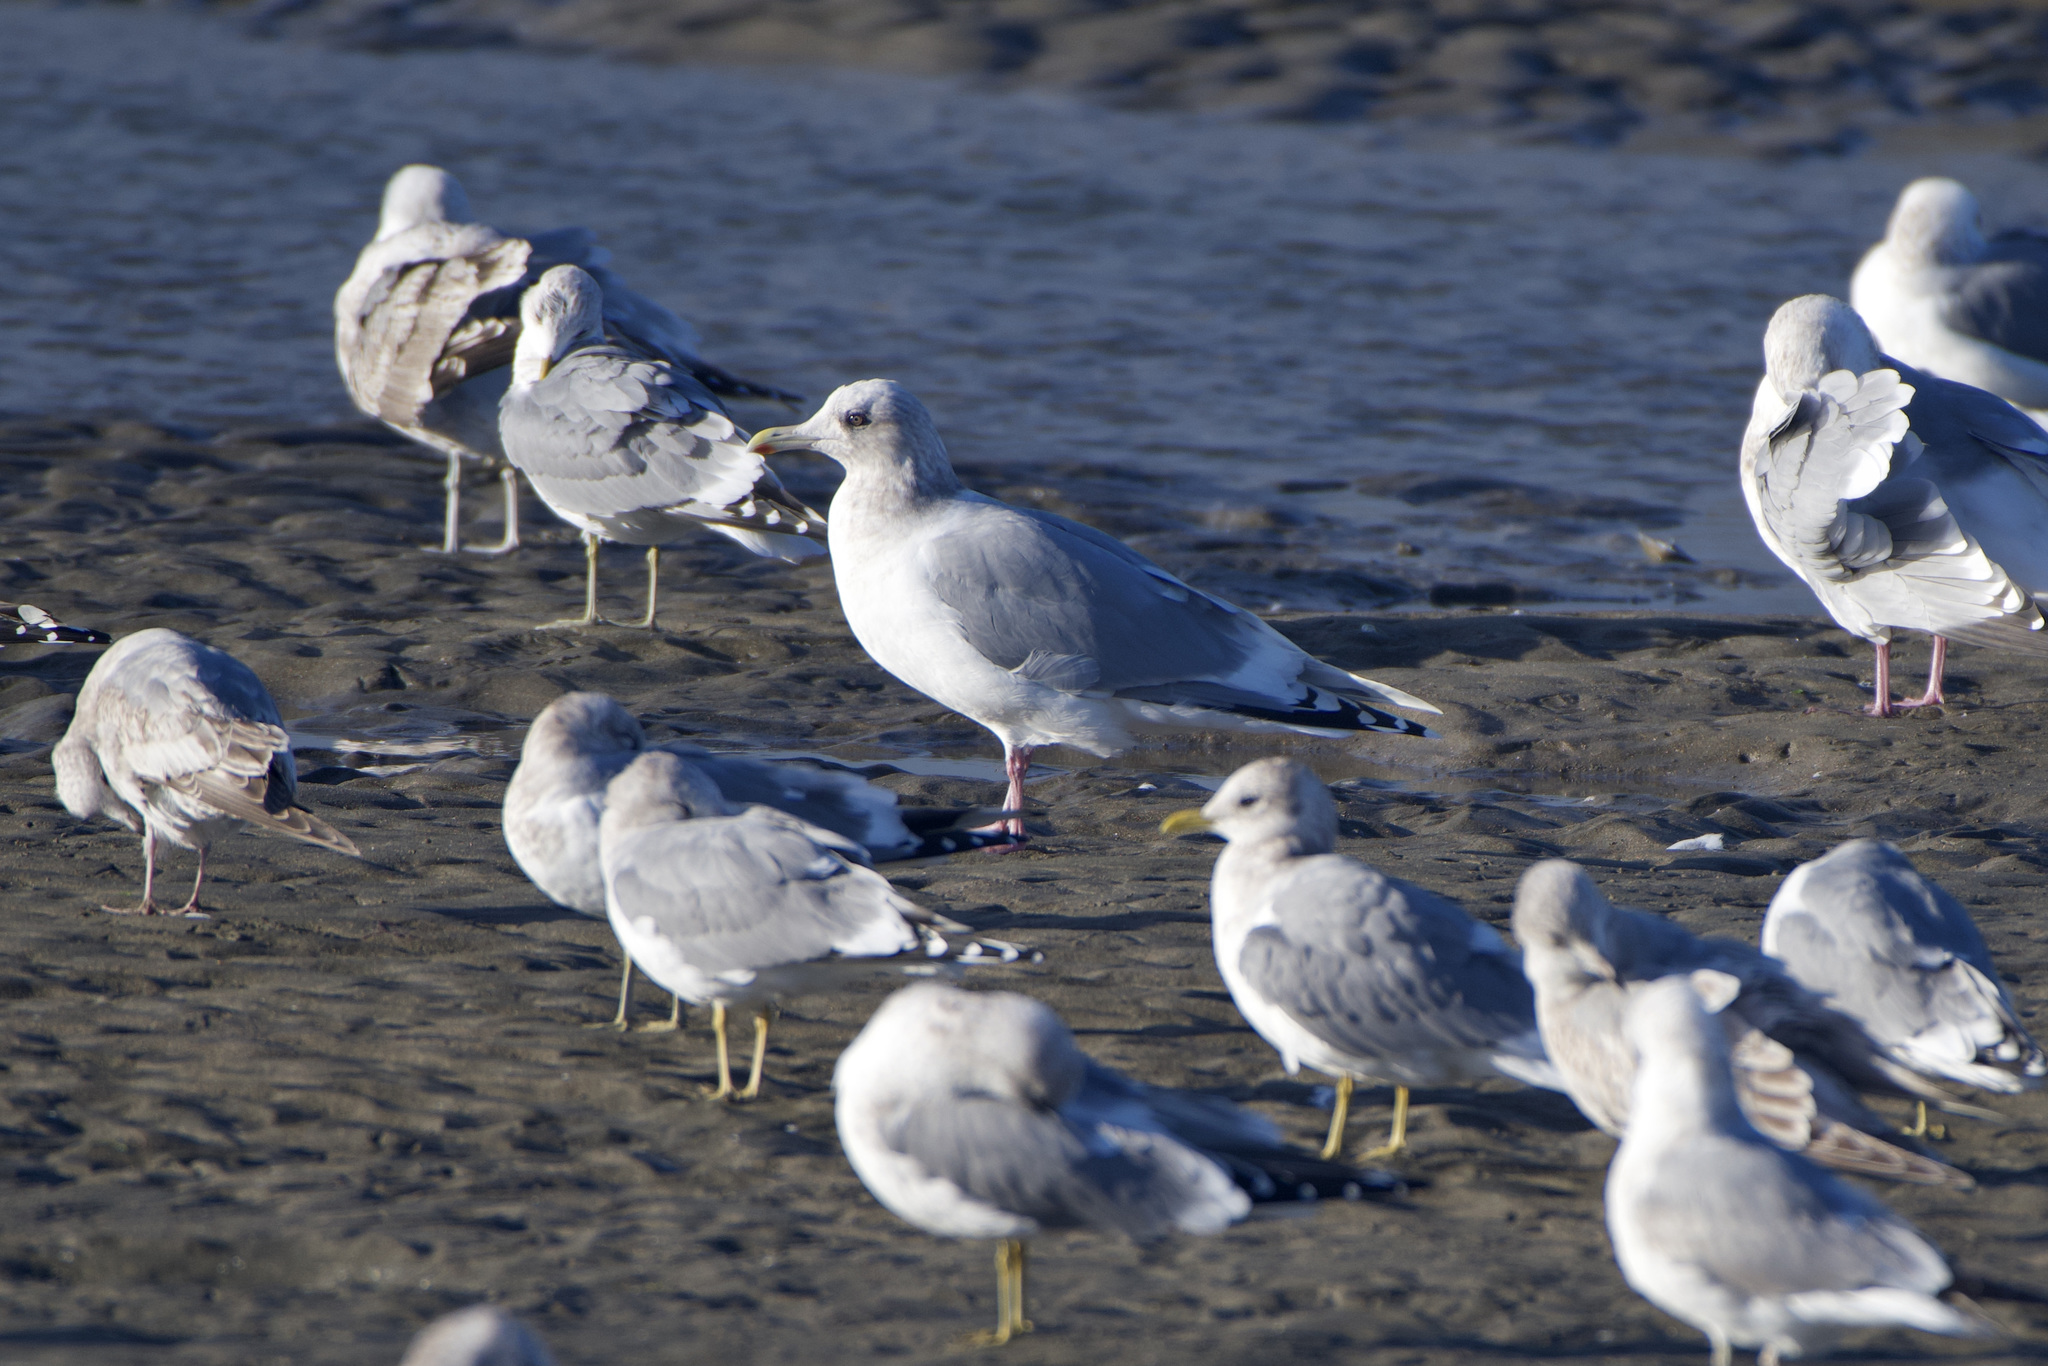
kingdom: Animalia
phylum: Chordata
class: Aves
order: Charadriiformes
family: Laridae
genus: Larus
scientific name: Larus glaucoides
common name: Iceland gull
